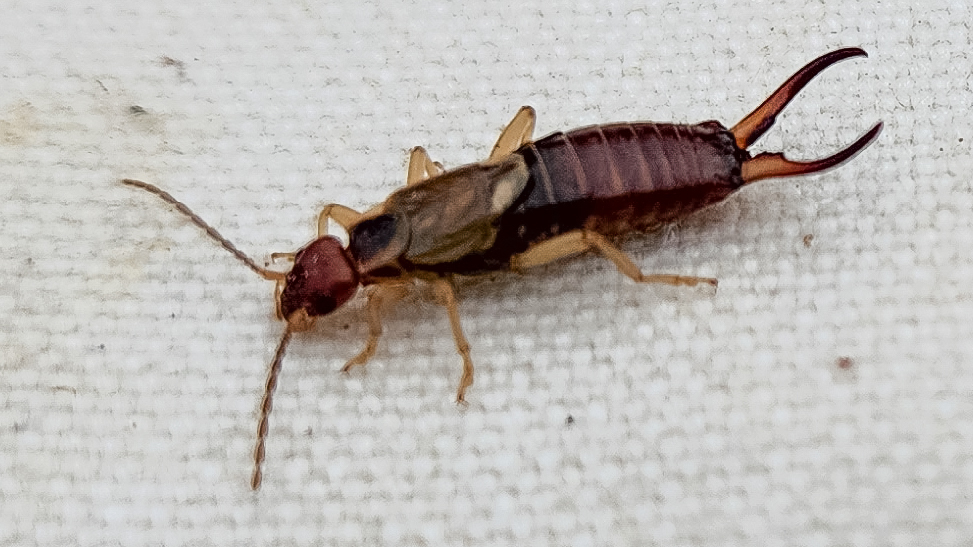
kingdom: Animalia
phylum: Arthropoda
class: Insecta
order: Dermaptera
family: Forficulidae
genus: Forficula
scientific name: Forficula
